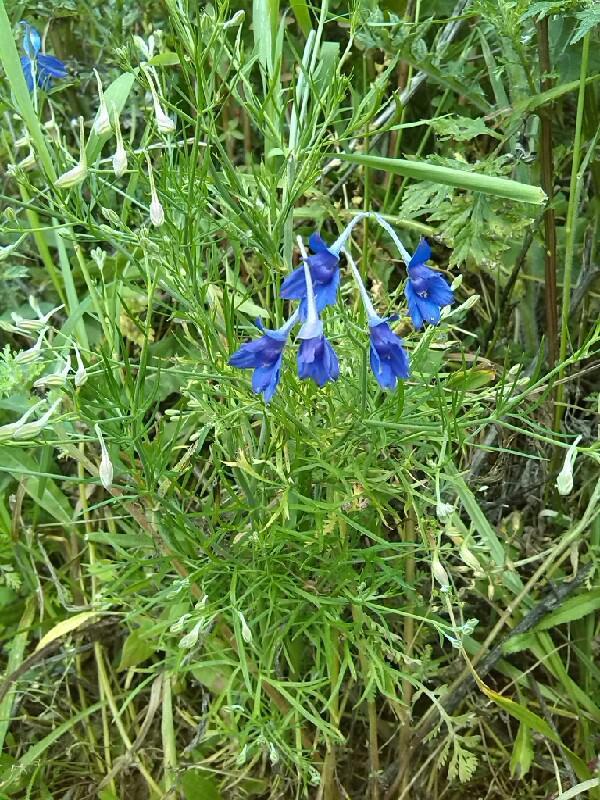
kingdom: Plantae
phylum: Tracheophyta
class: Magnoliopsida
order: Ranunculales
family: Ranunculaceae
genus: Delphinium
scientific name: Delphinium consolida
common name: Branching larkspur
